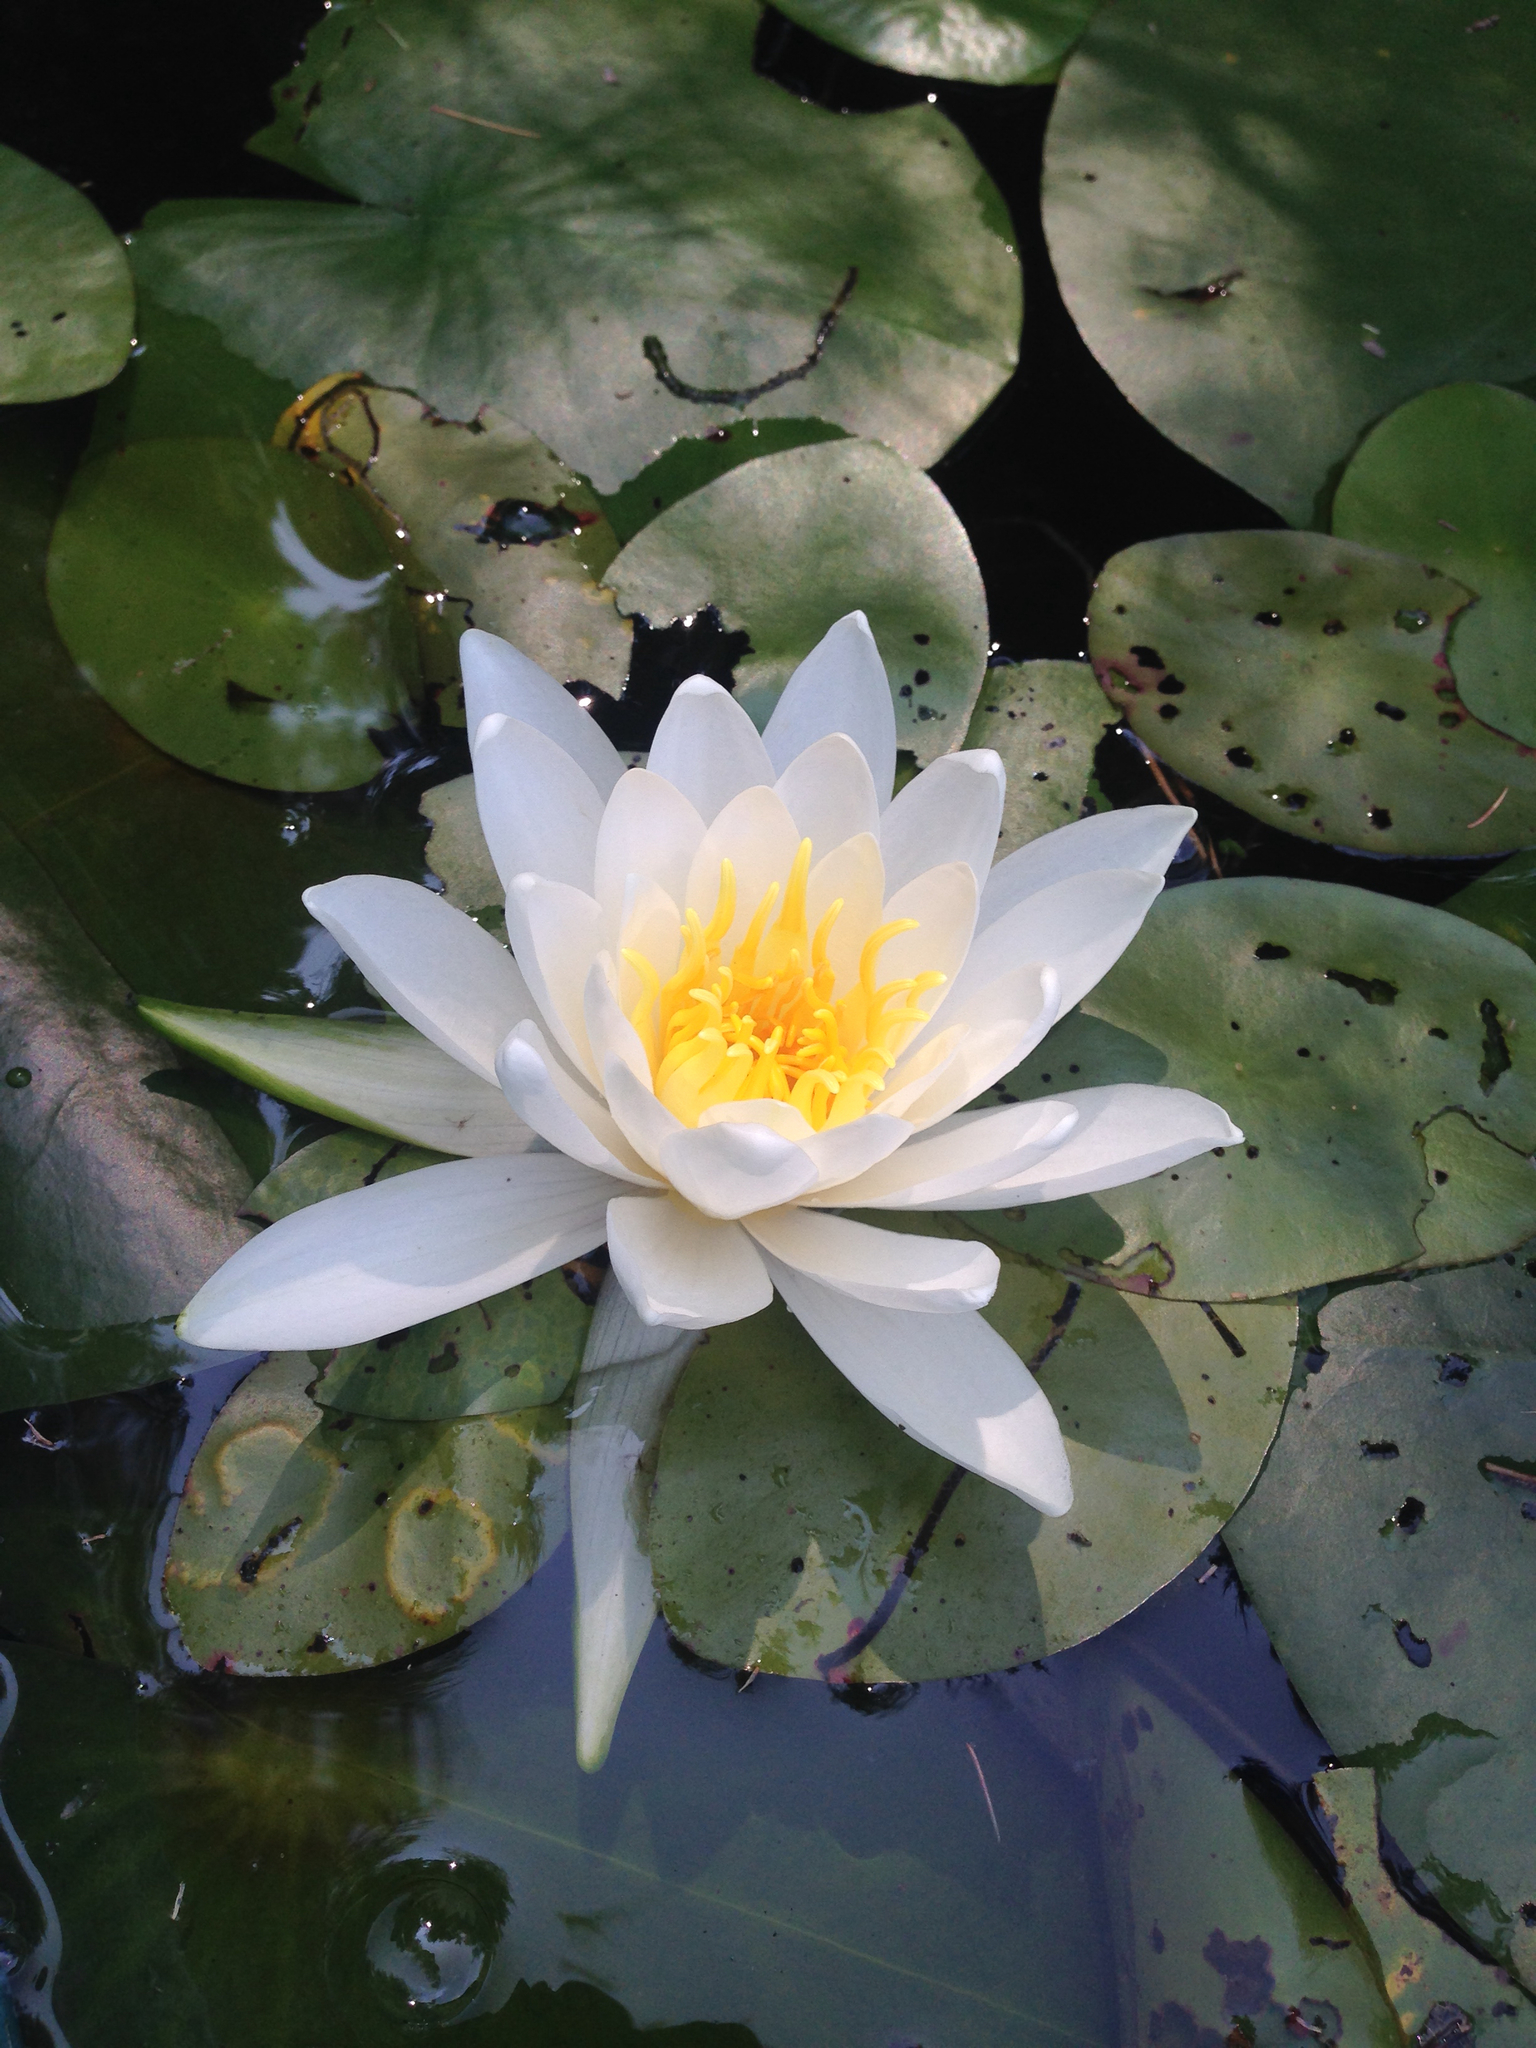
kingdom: Plantae
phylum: Tracheophyta
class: Magnoliopsida
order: Nymphaeales
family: Nymphaeaceae
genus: Nymphaea
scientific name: Nymphaea odorata
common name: Fragrant water-lily
